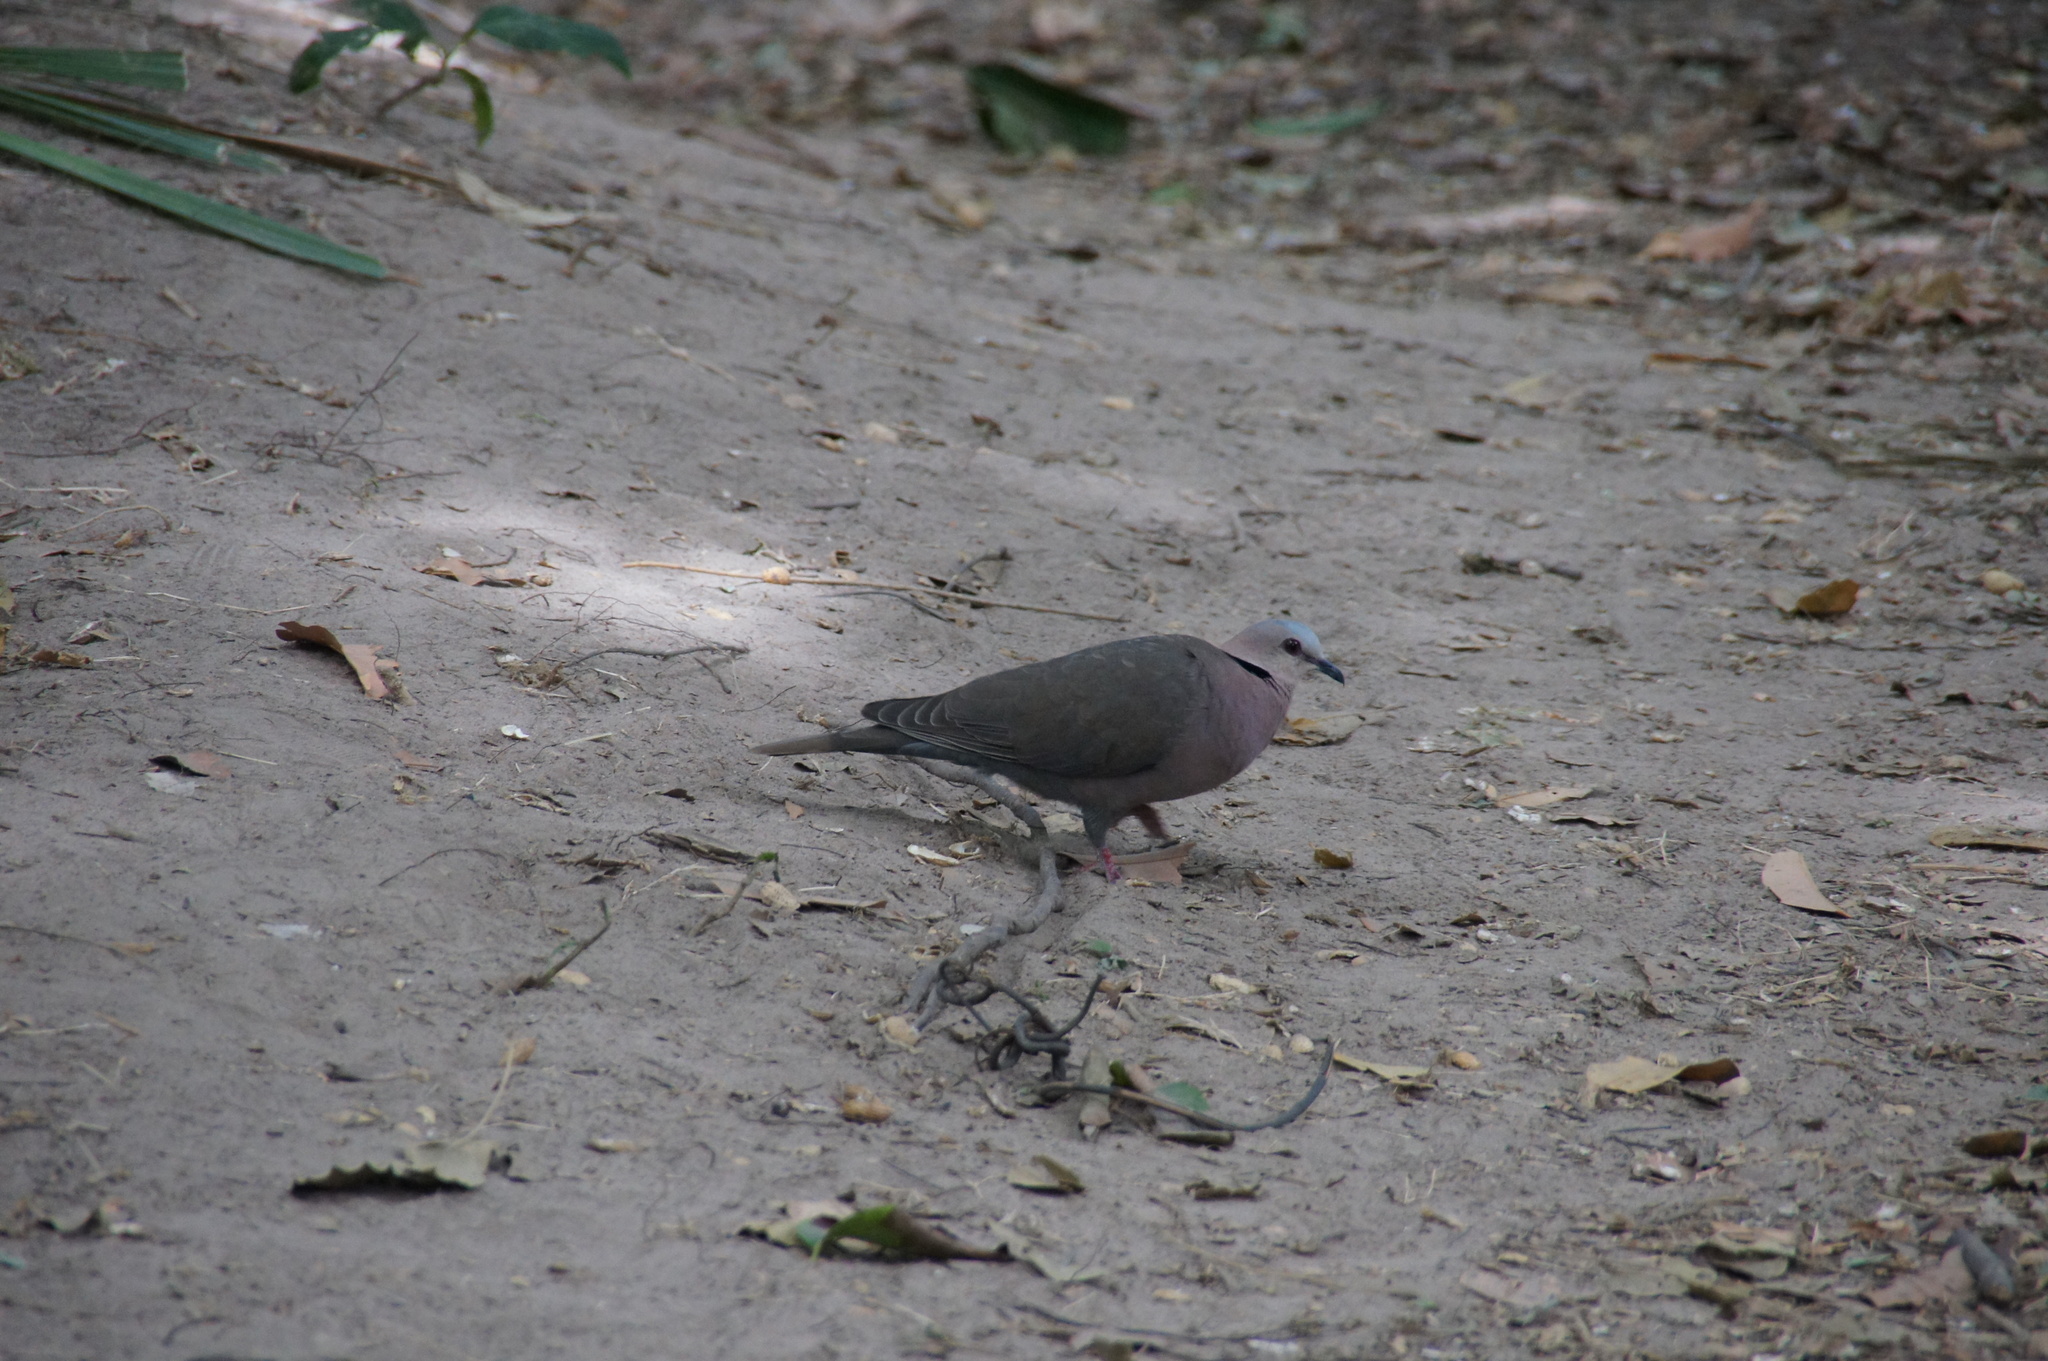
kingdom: Animalia
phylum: Chordata
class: Aves
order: Columbiformes
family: Columbidae
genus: Streptopelia
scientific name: Streptopelia semitorquata
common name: Red-eyed dove
